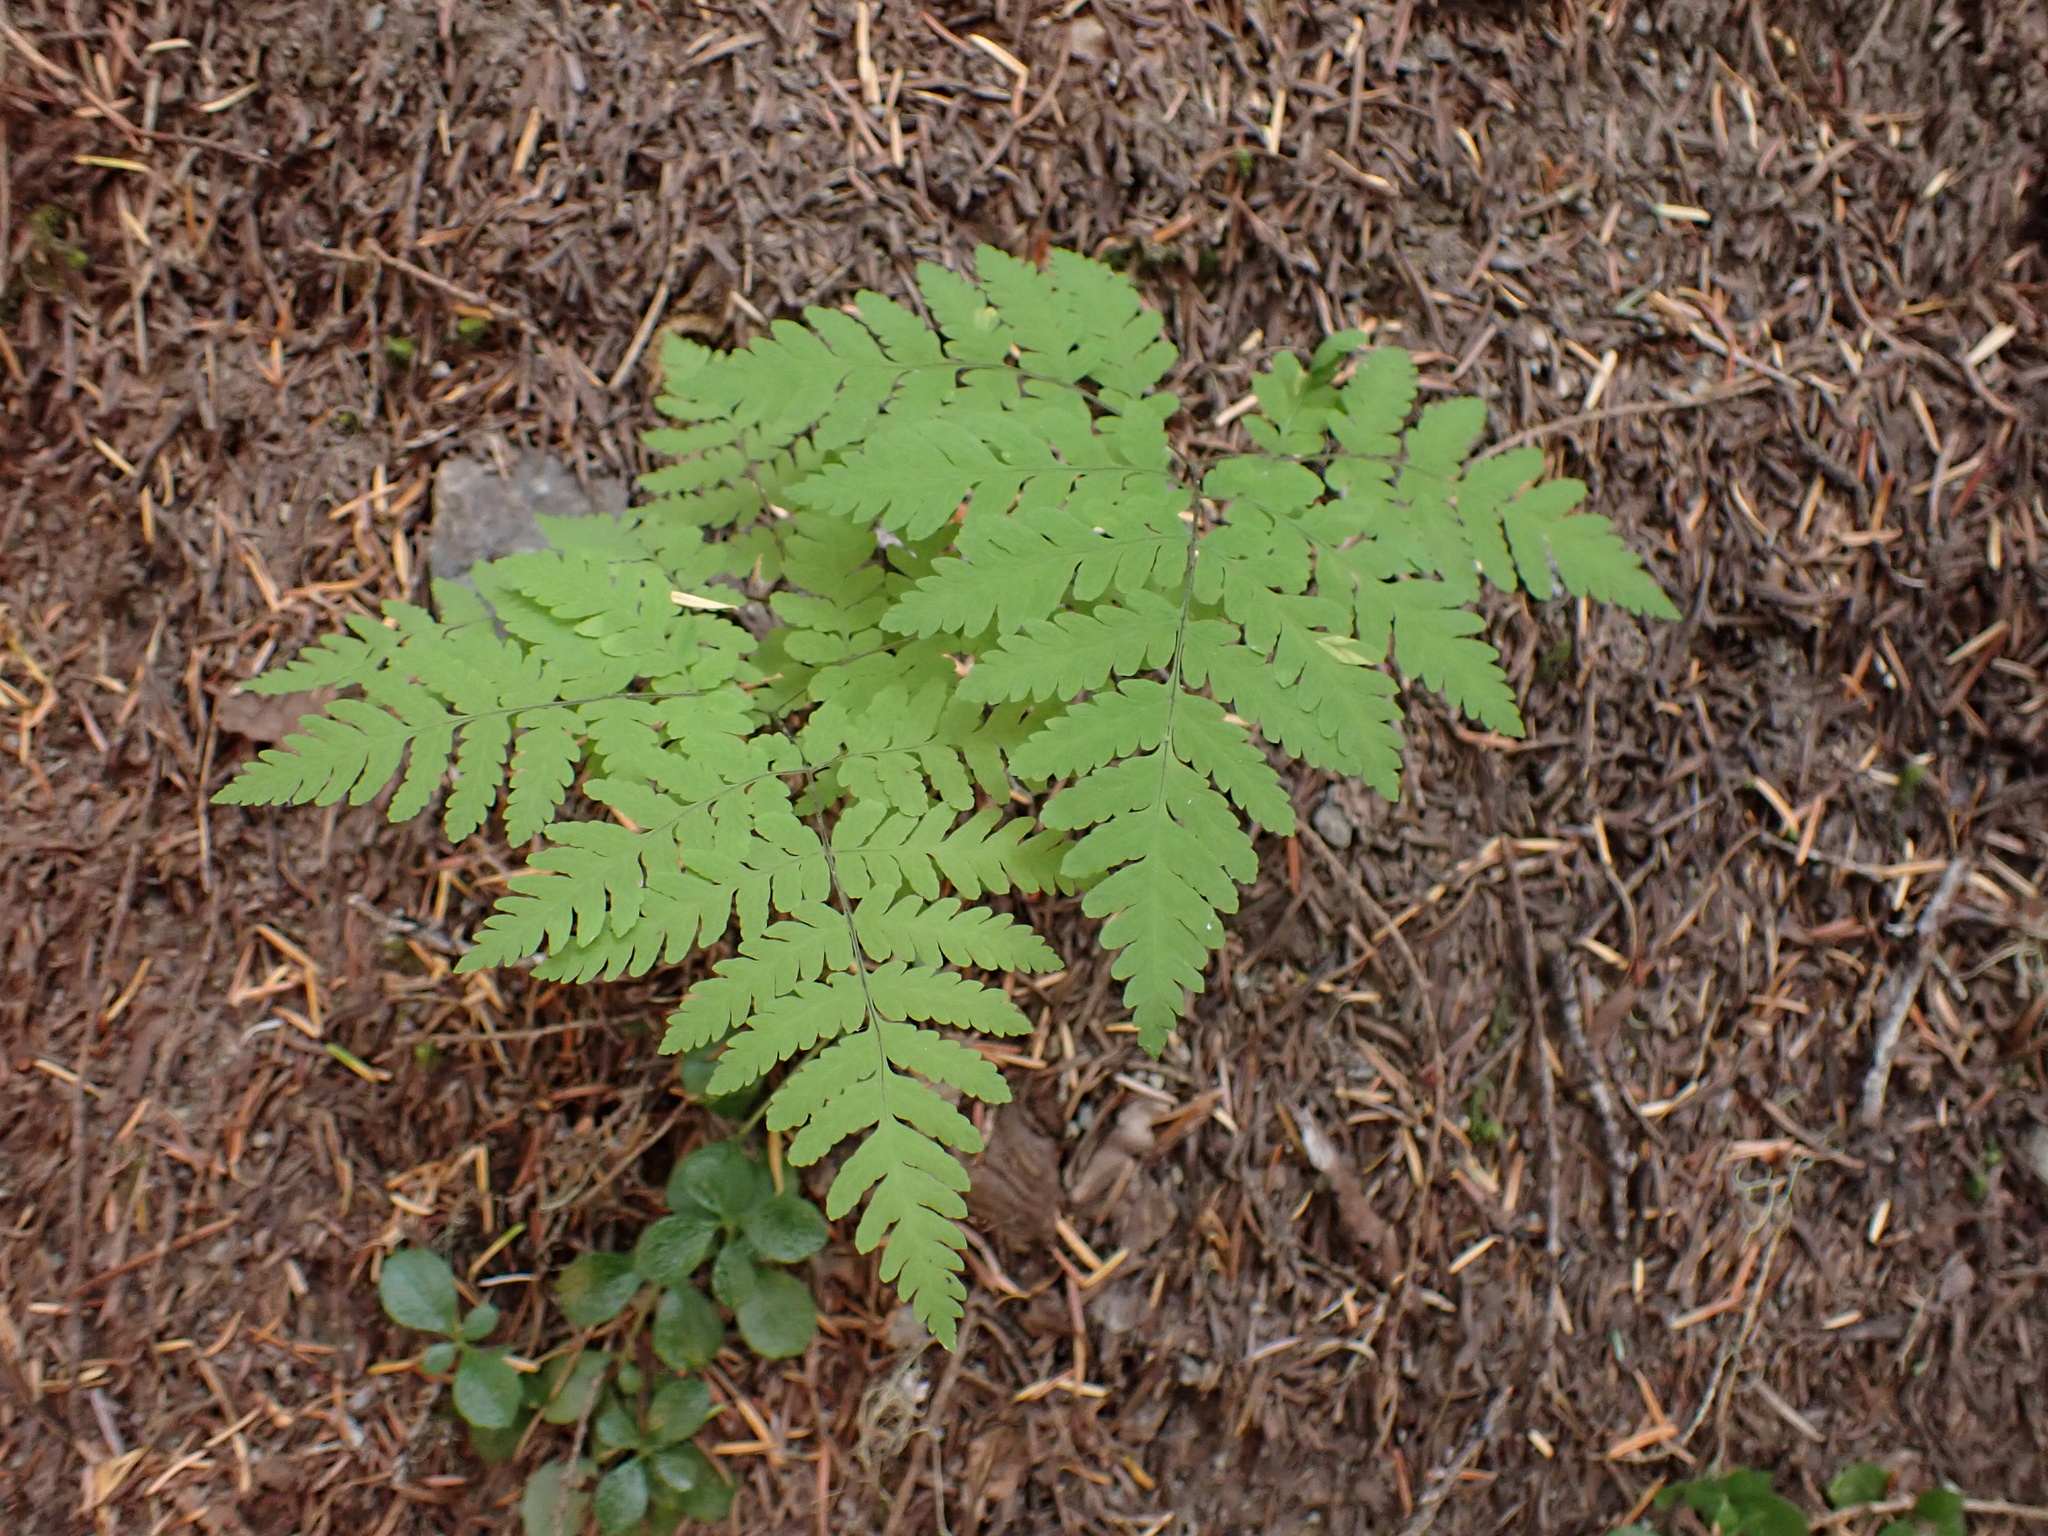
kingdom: Plantae
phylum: Tracheophyta
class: Polypodiopsida
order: Polypodiales
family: Cystopteridaceae
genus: Gymnocarpium
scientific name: Gymnocarpium disjunctum
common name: Western oak fern
